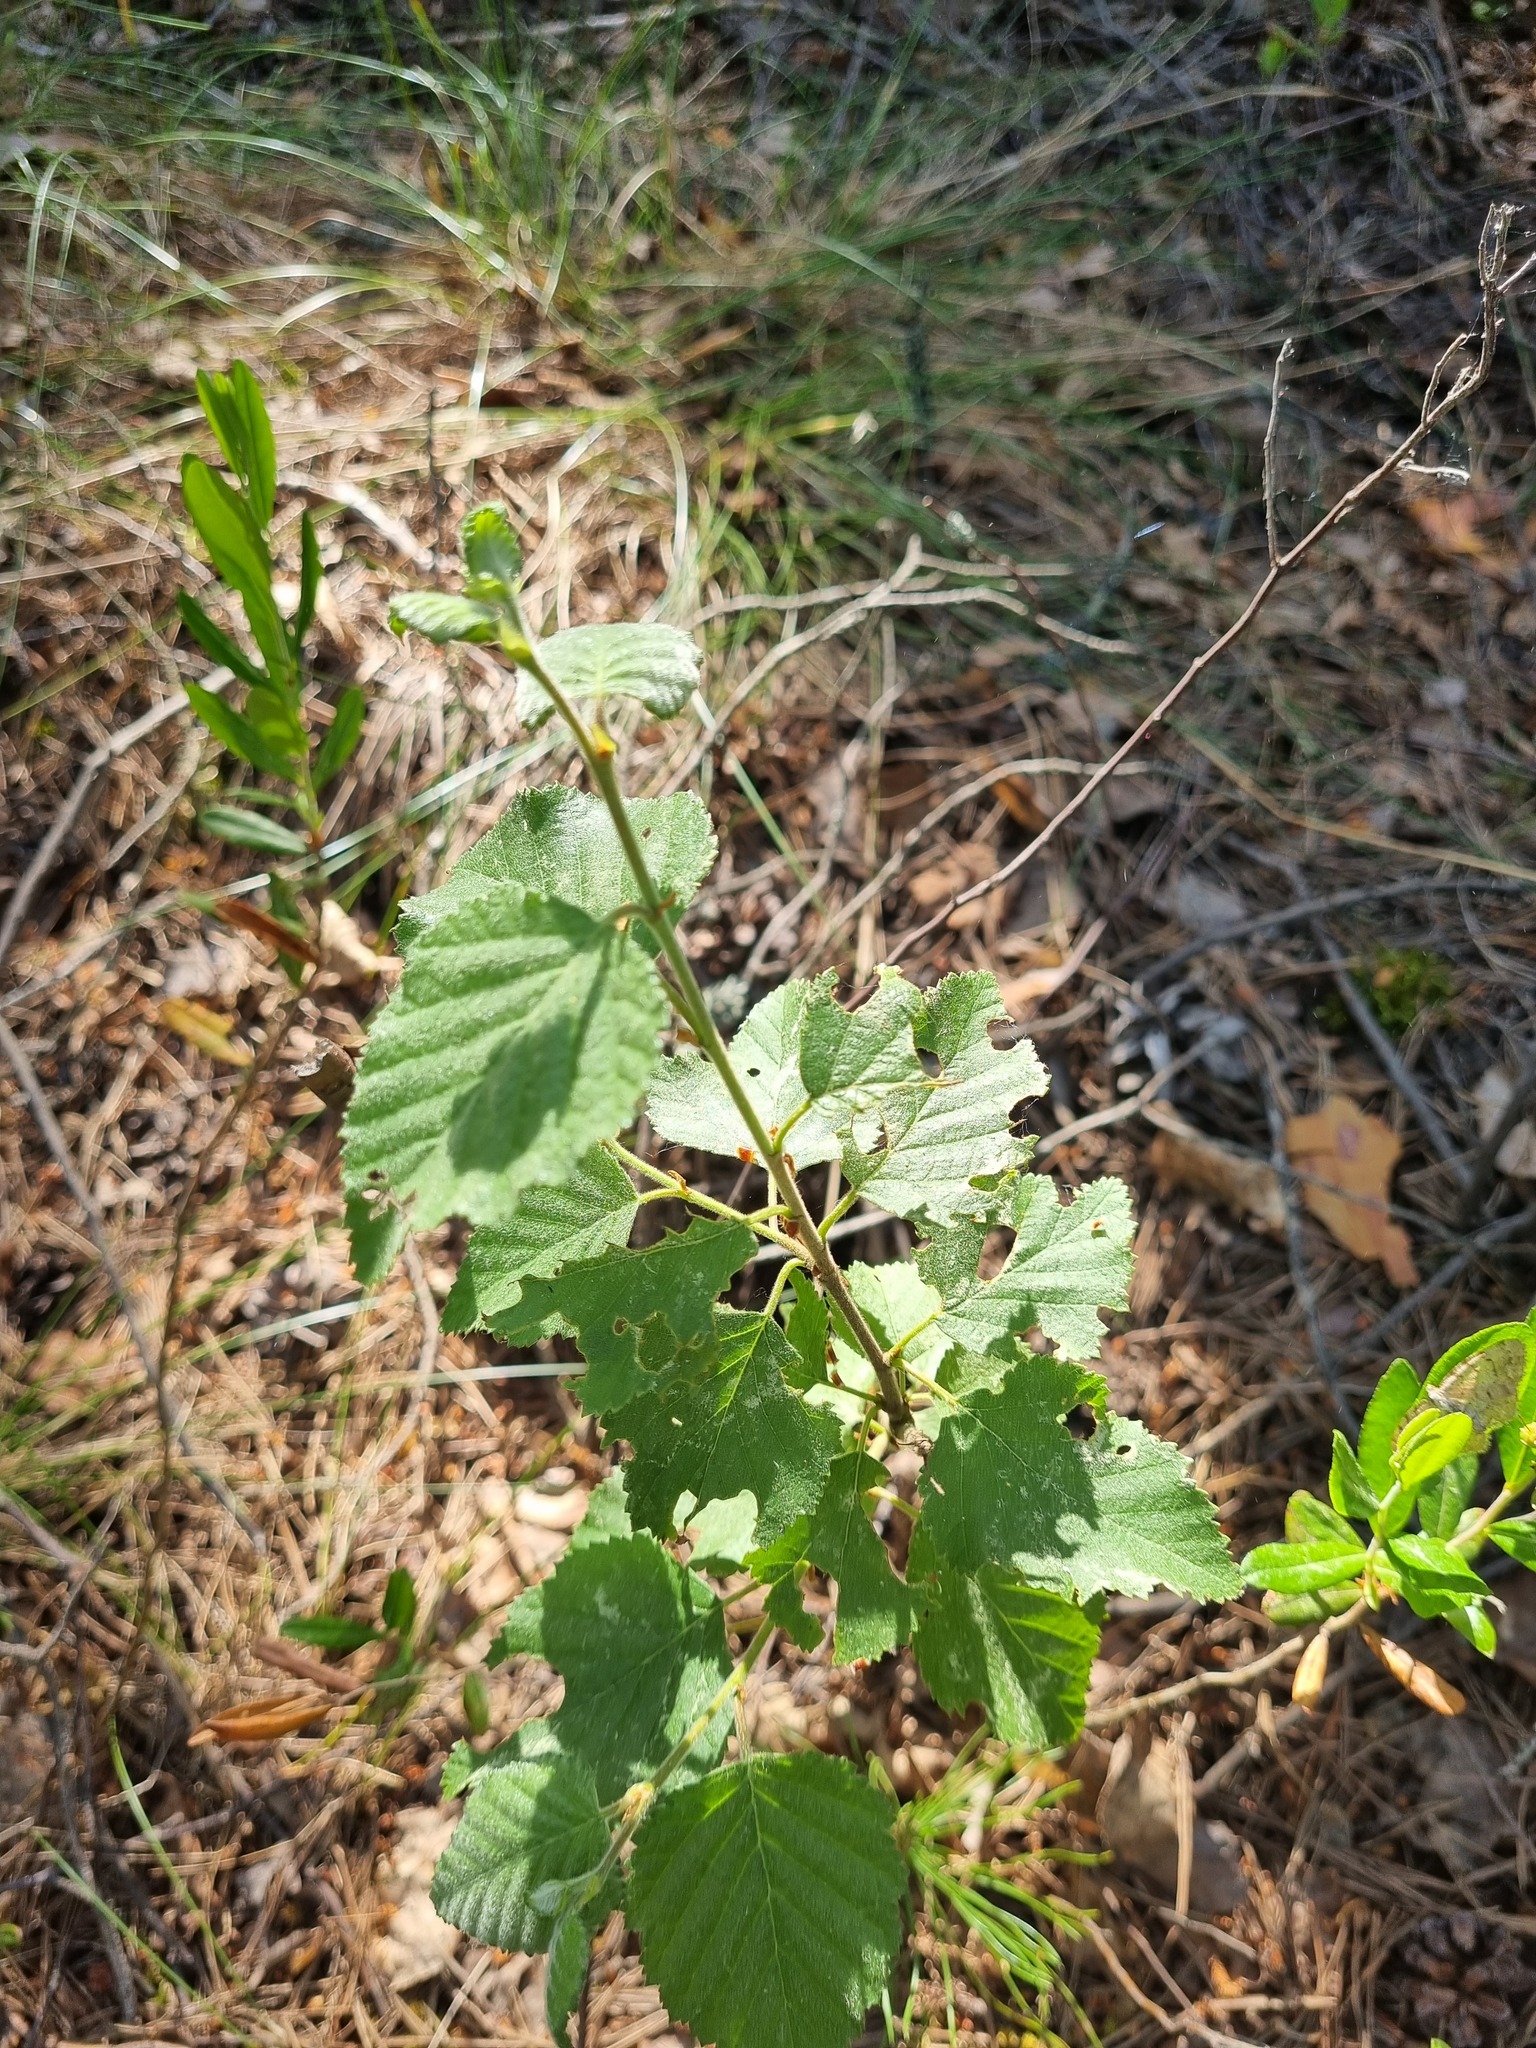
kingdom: Plantae
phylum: Tracheophyta
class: Magnoliopsida
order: Fagales
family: Betulaceae
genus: Betula
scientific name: Betula pubescens
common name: Downy birch
